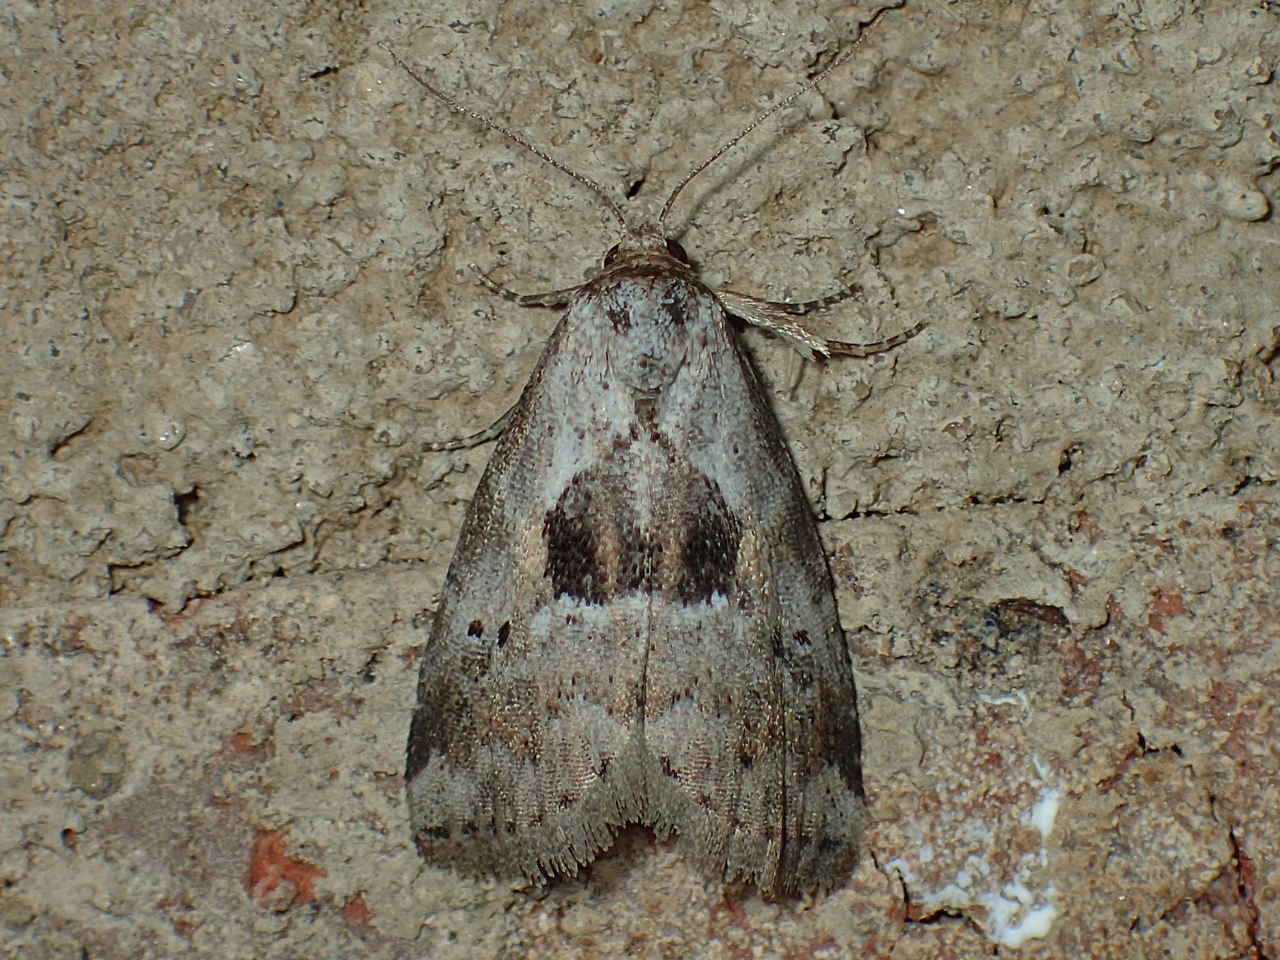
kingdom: Animalia
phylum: Arthropoda
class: Insecta
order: Lepidoptera
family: Erebidae
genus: Hyperstrotia
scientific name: Hyperstrotia secta
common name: Black-patched graylet
